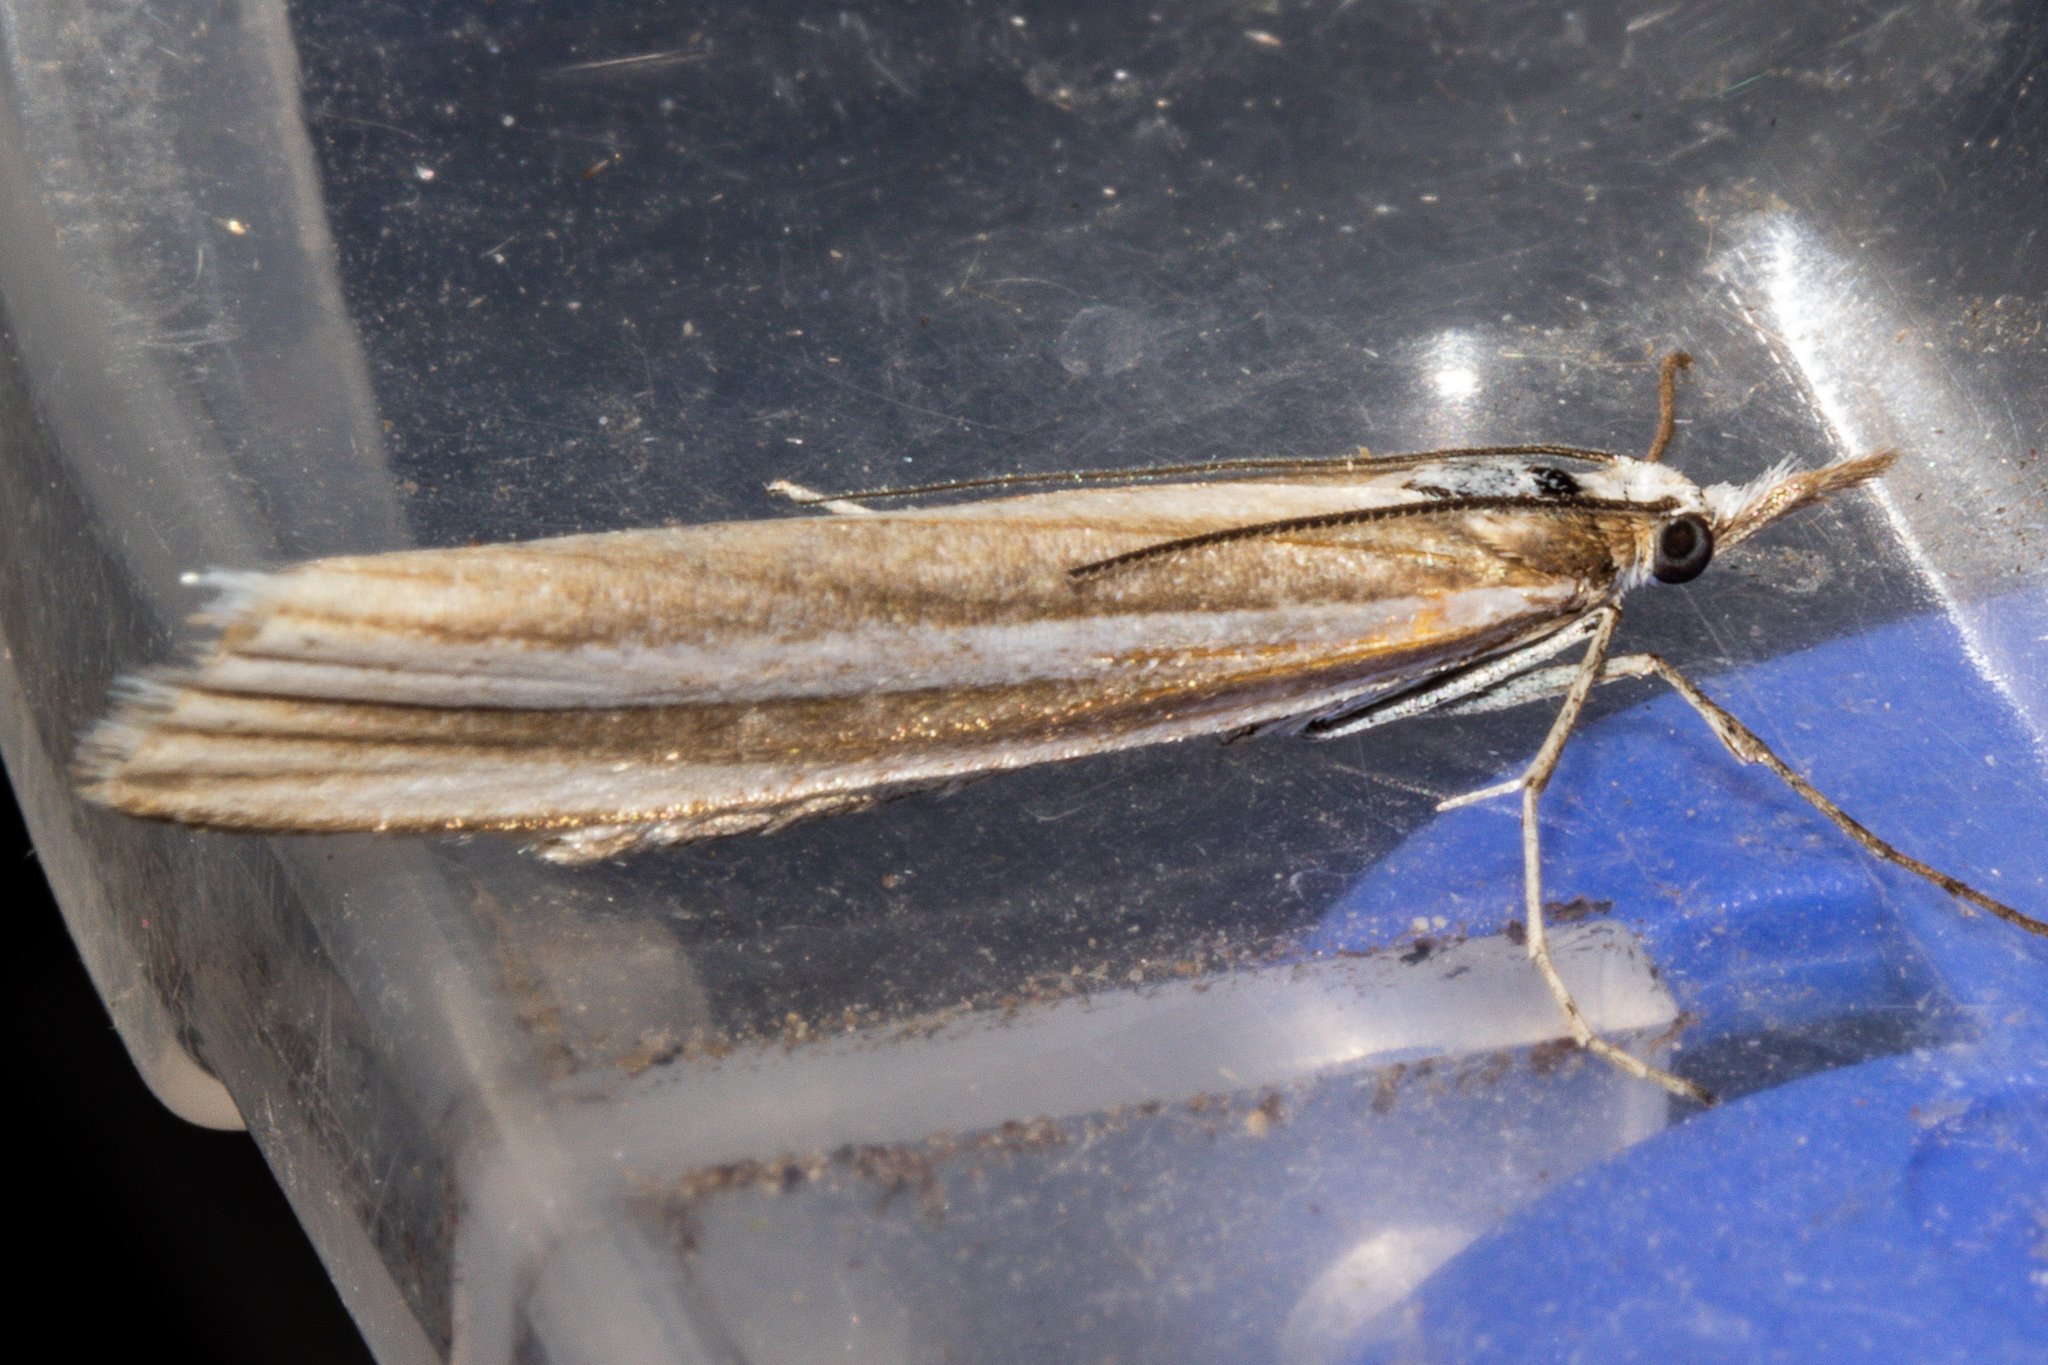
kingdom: Animalia
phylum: Arthropoda
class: Insecta
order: Lepidoptera
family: Crambidae
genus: Orocrambus
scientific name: Orocrambus siriellus
